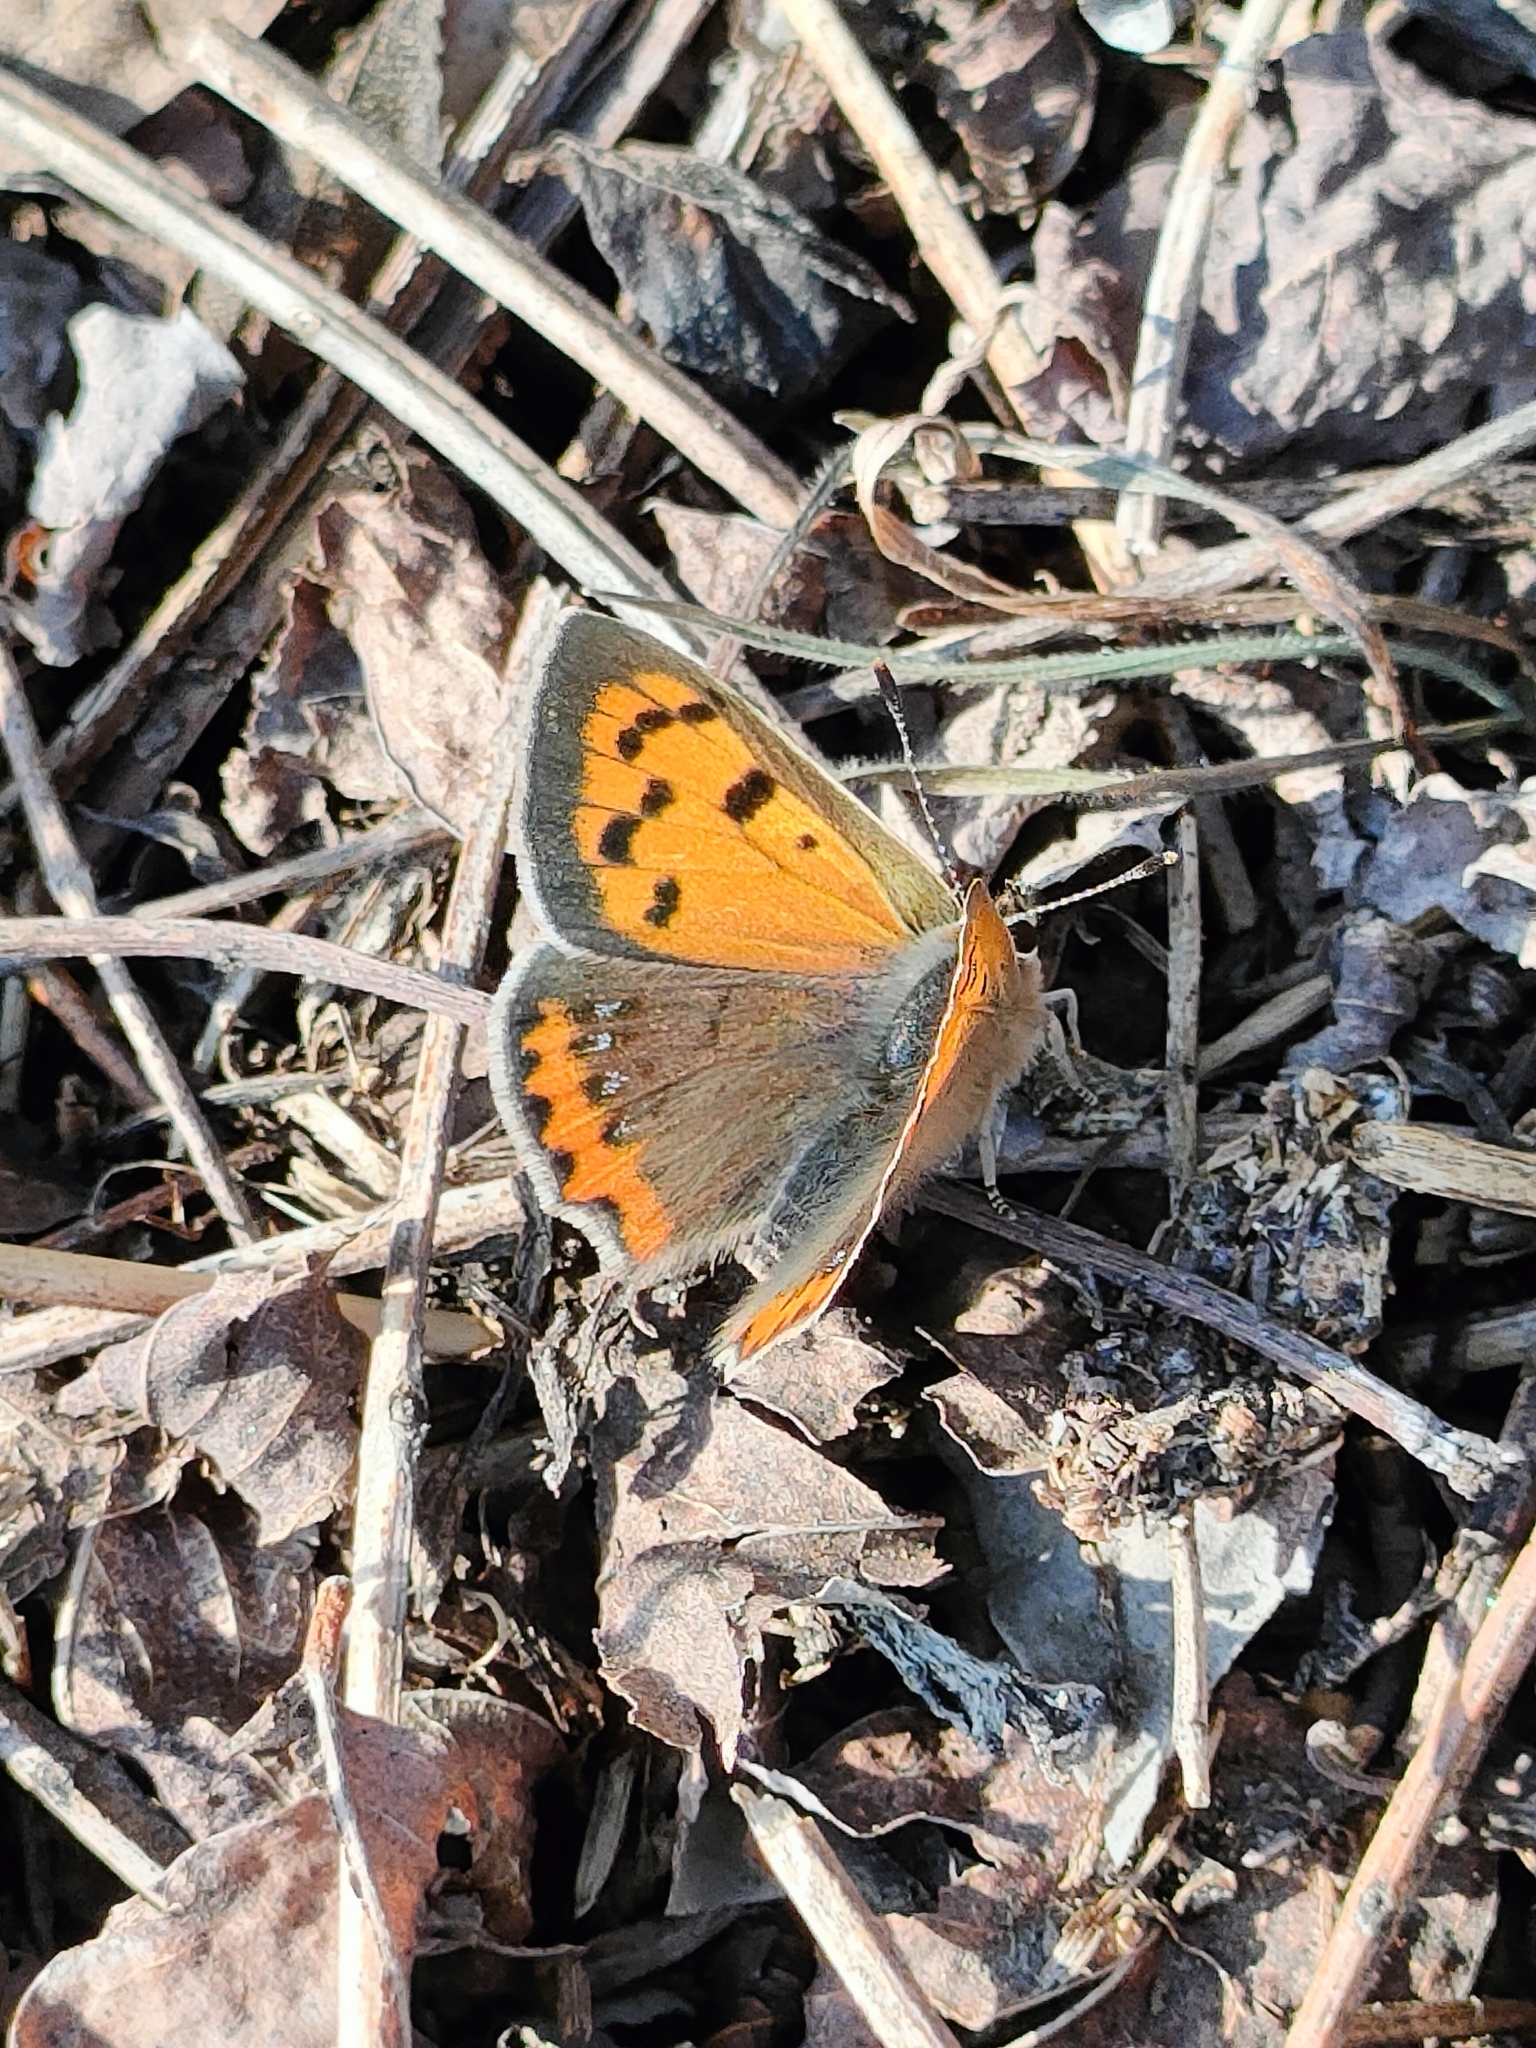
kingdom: Animalia
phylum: Arthropoda
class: Insecta
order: Lepidoptera
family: Lycaenidae
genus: Lycaena
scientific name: Lycaena phlaeas
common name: Small copper
